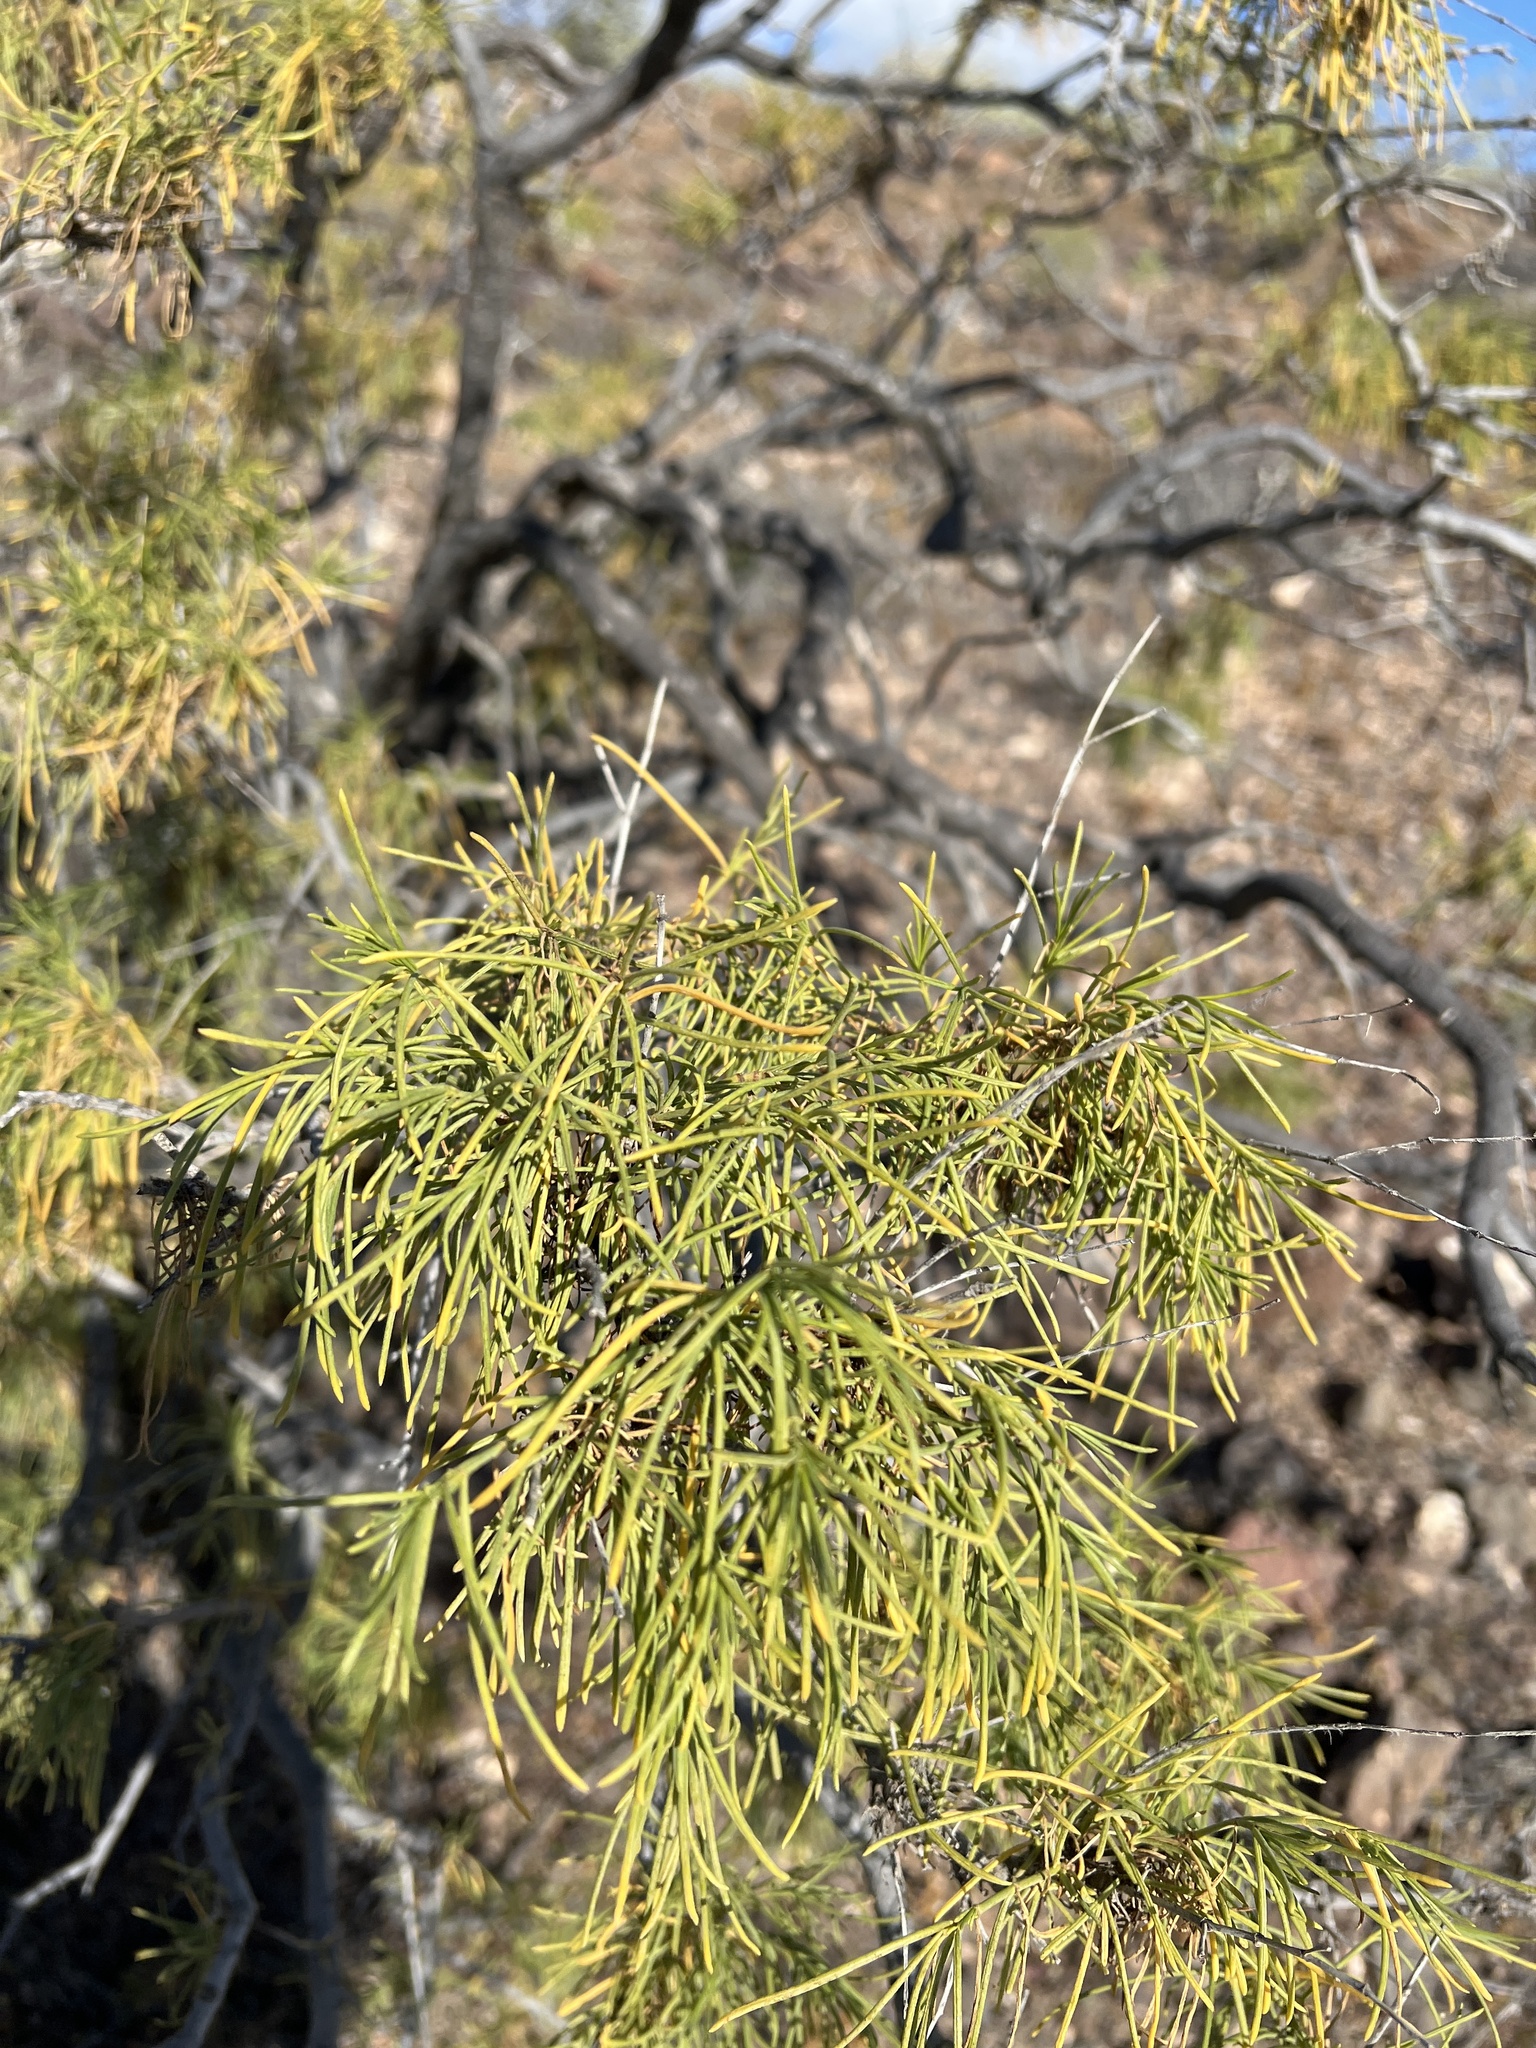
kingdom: Plantae
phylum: Tracheophyta
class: Magnoliopsida
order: Gentianales
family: Rubiaceae
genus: Plocama
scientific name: Plocama pendula
